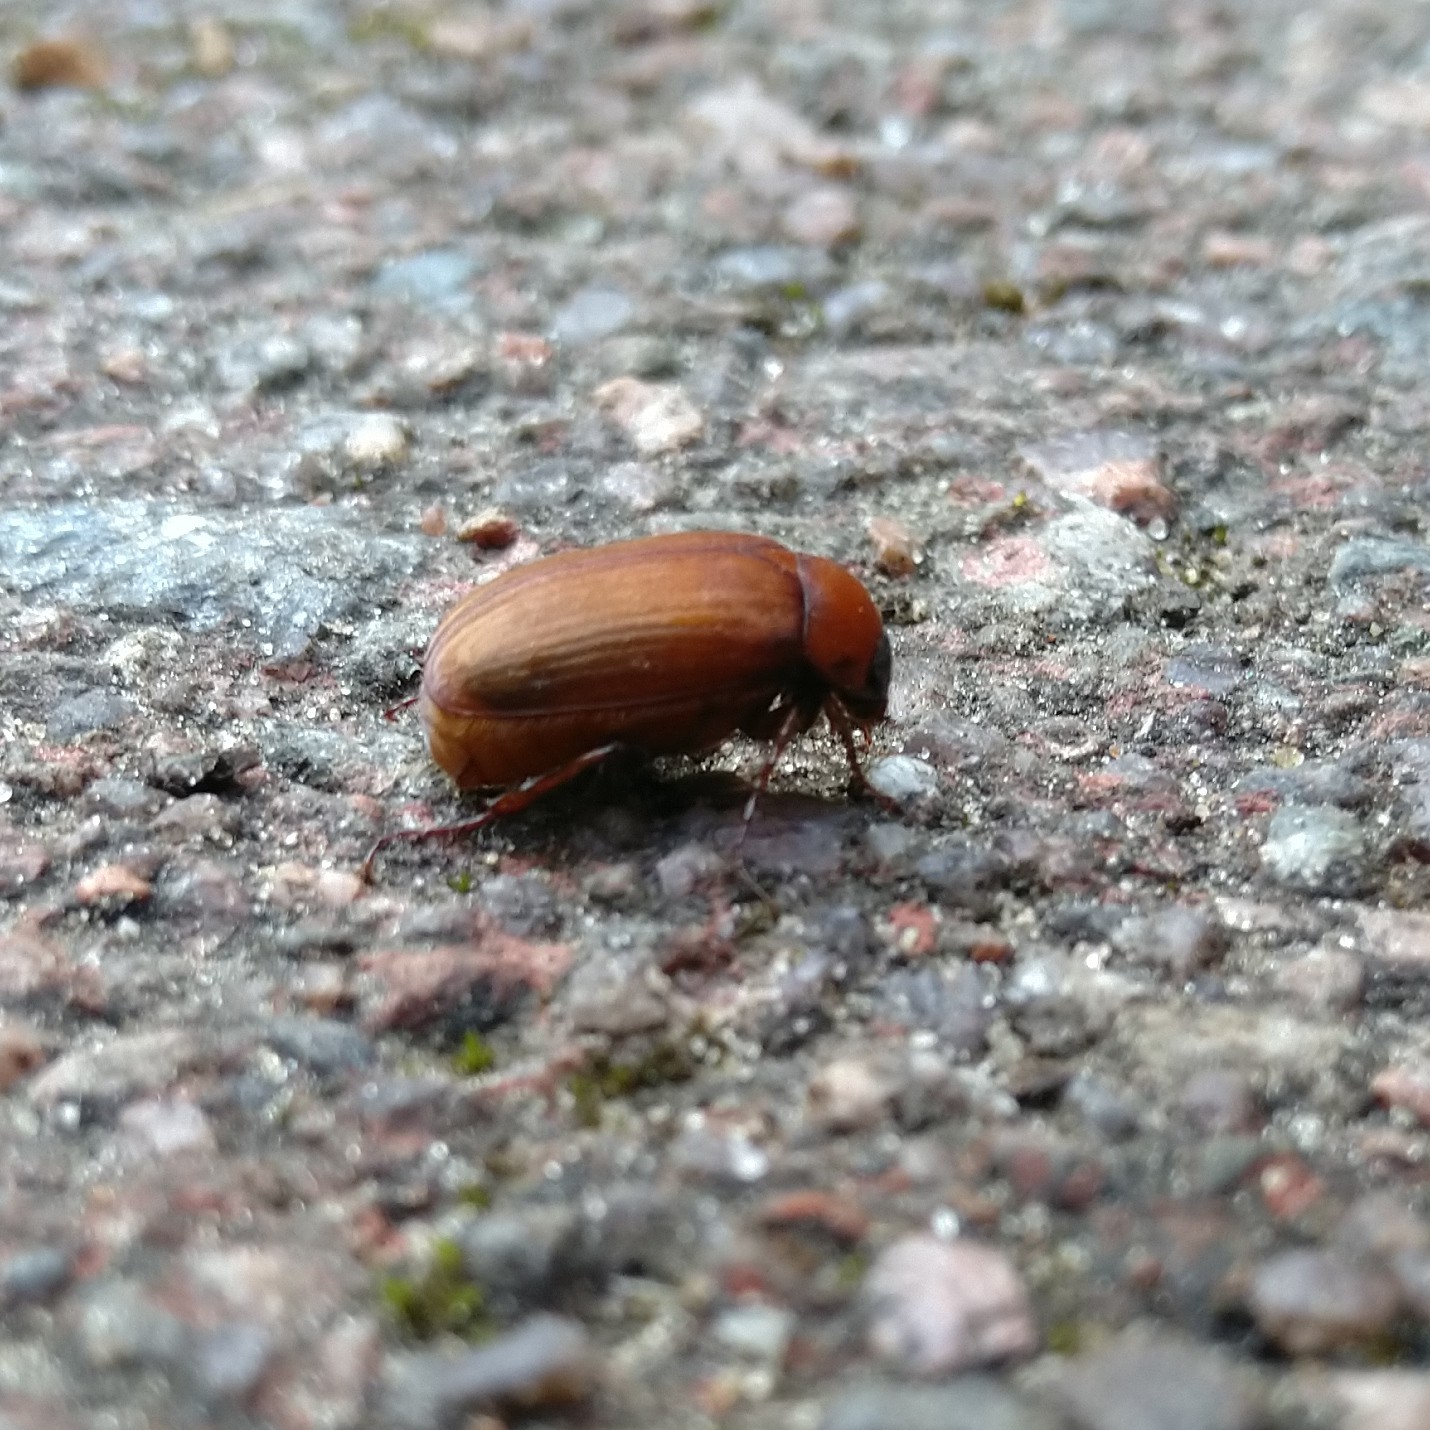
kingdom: Animalia
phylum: Arthropoda
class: Insecta
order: Coleoptera
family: Scarabaeidae
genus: Serica
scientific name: Serica brunnea
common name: Brown chafer
